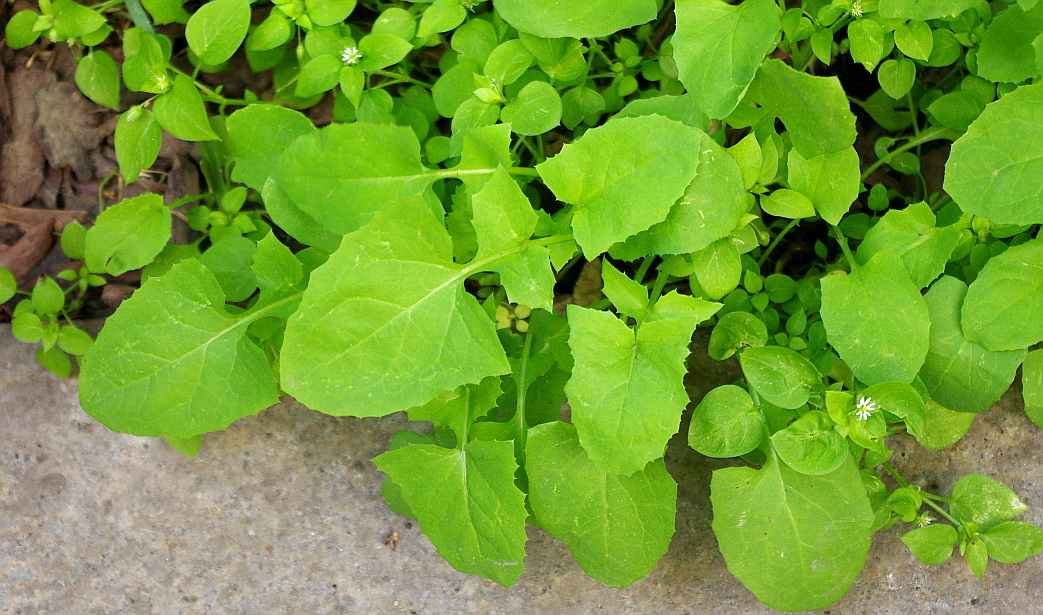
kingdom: Plantae
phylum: Tracheophyta
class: Magnoliopsida
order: Asterales
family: Asteraceae
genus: Sonchus
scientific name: Sonchus oleraceus
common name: Common sowthistle
